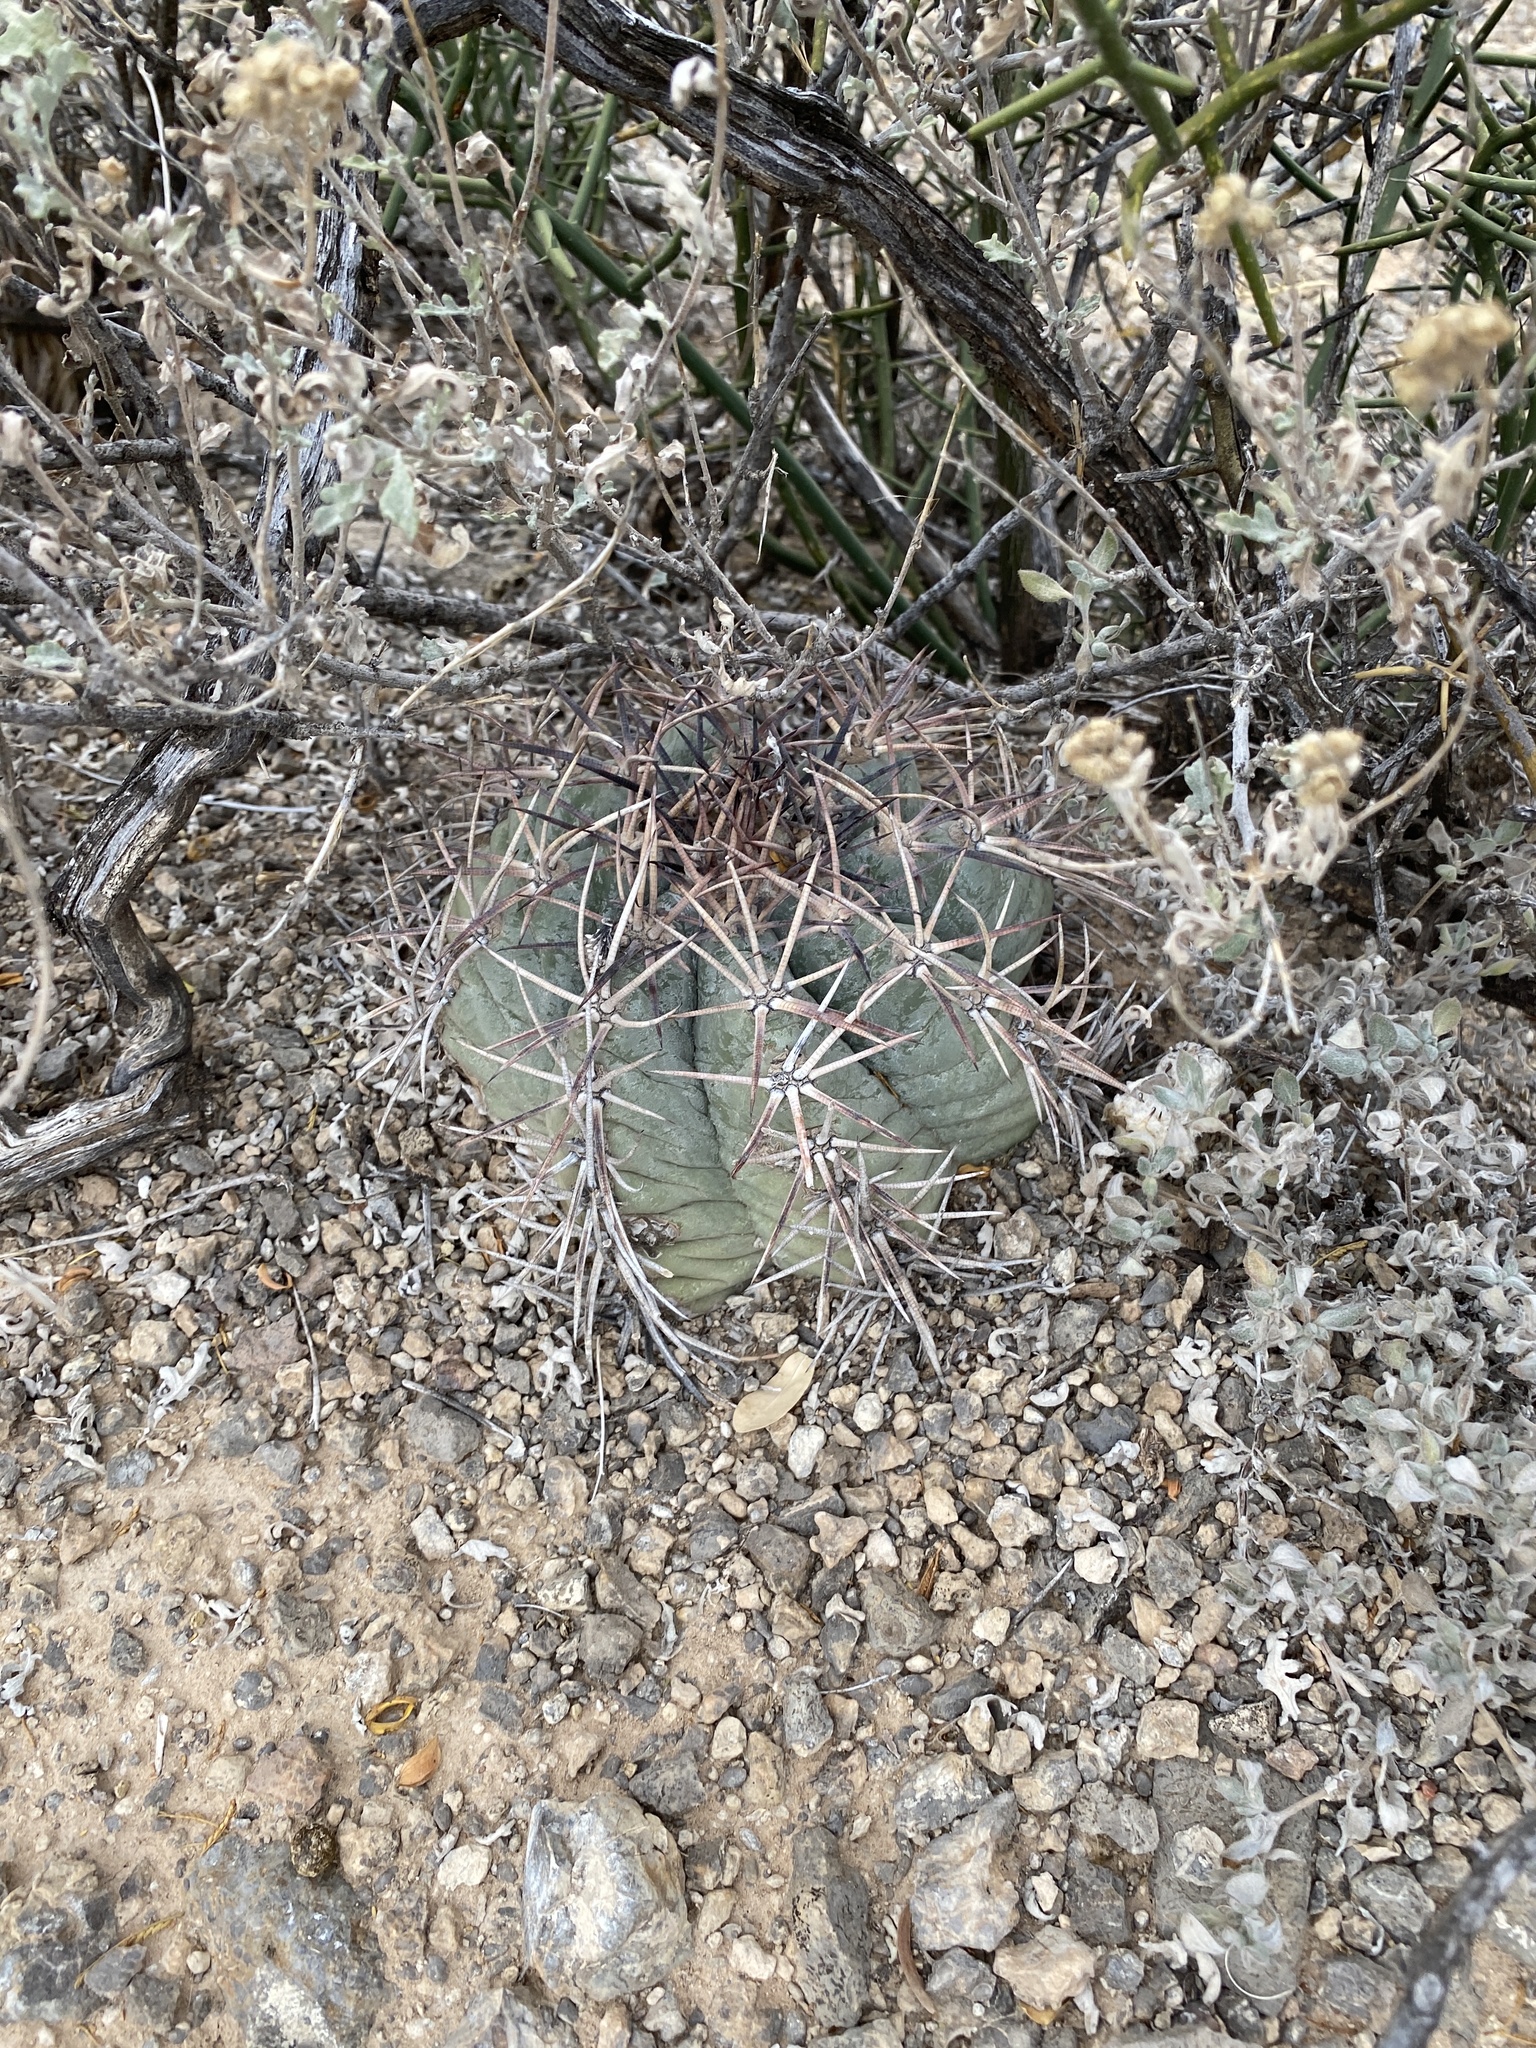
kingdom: Plantae
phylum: Tracheophyta
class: Magnoliopsida
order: Caryophyllales
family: Cactaceae
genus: Echinocactus
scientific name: Echinocactus horizonthalonius
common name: Devilshead
